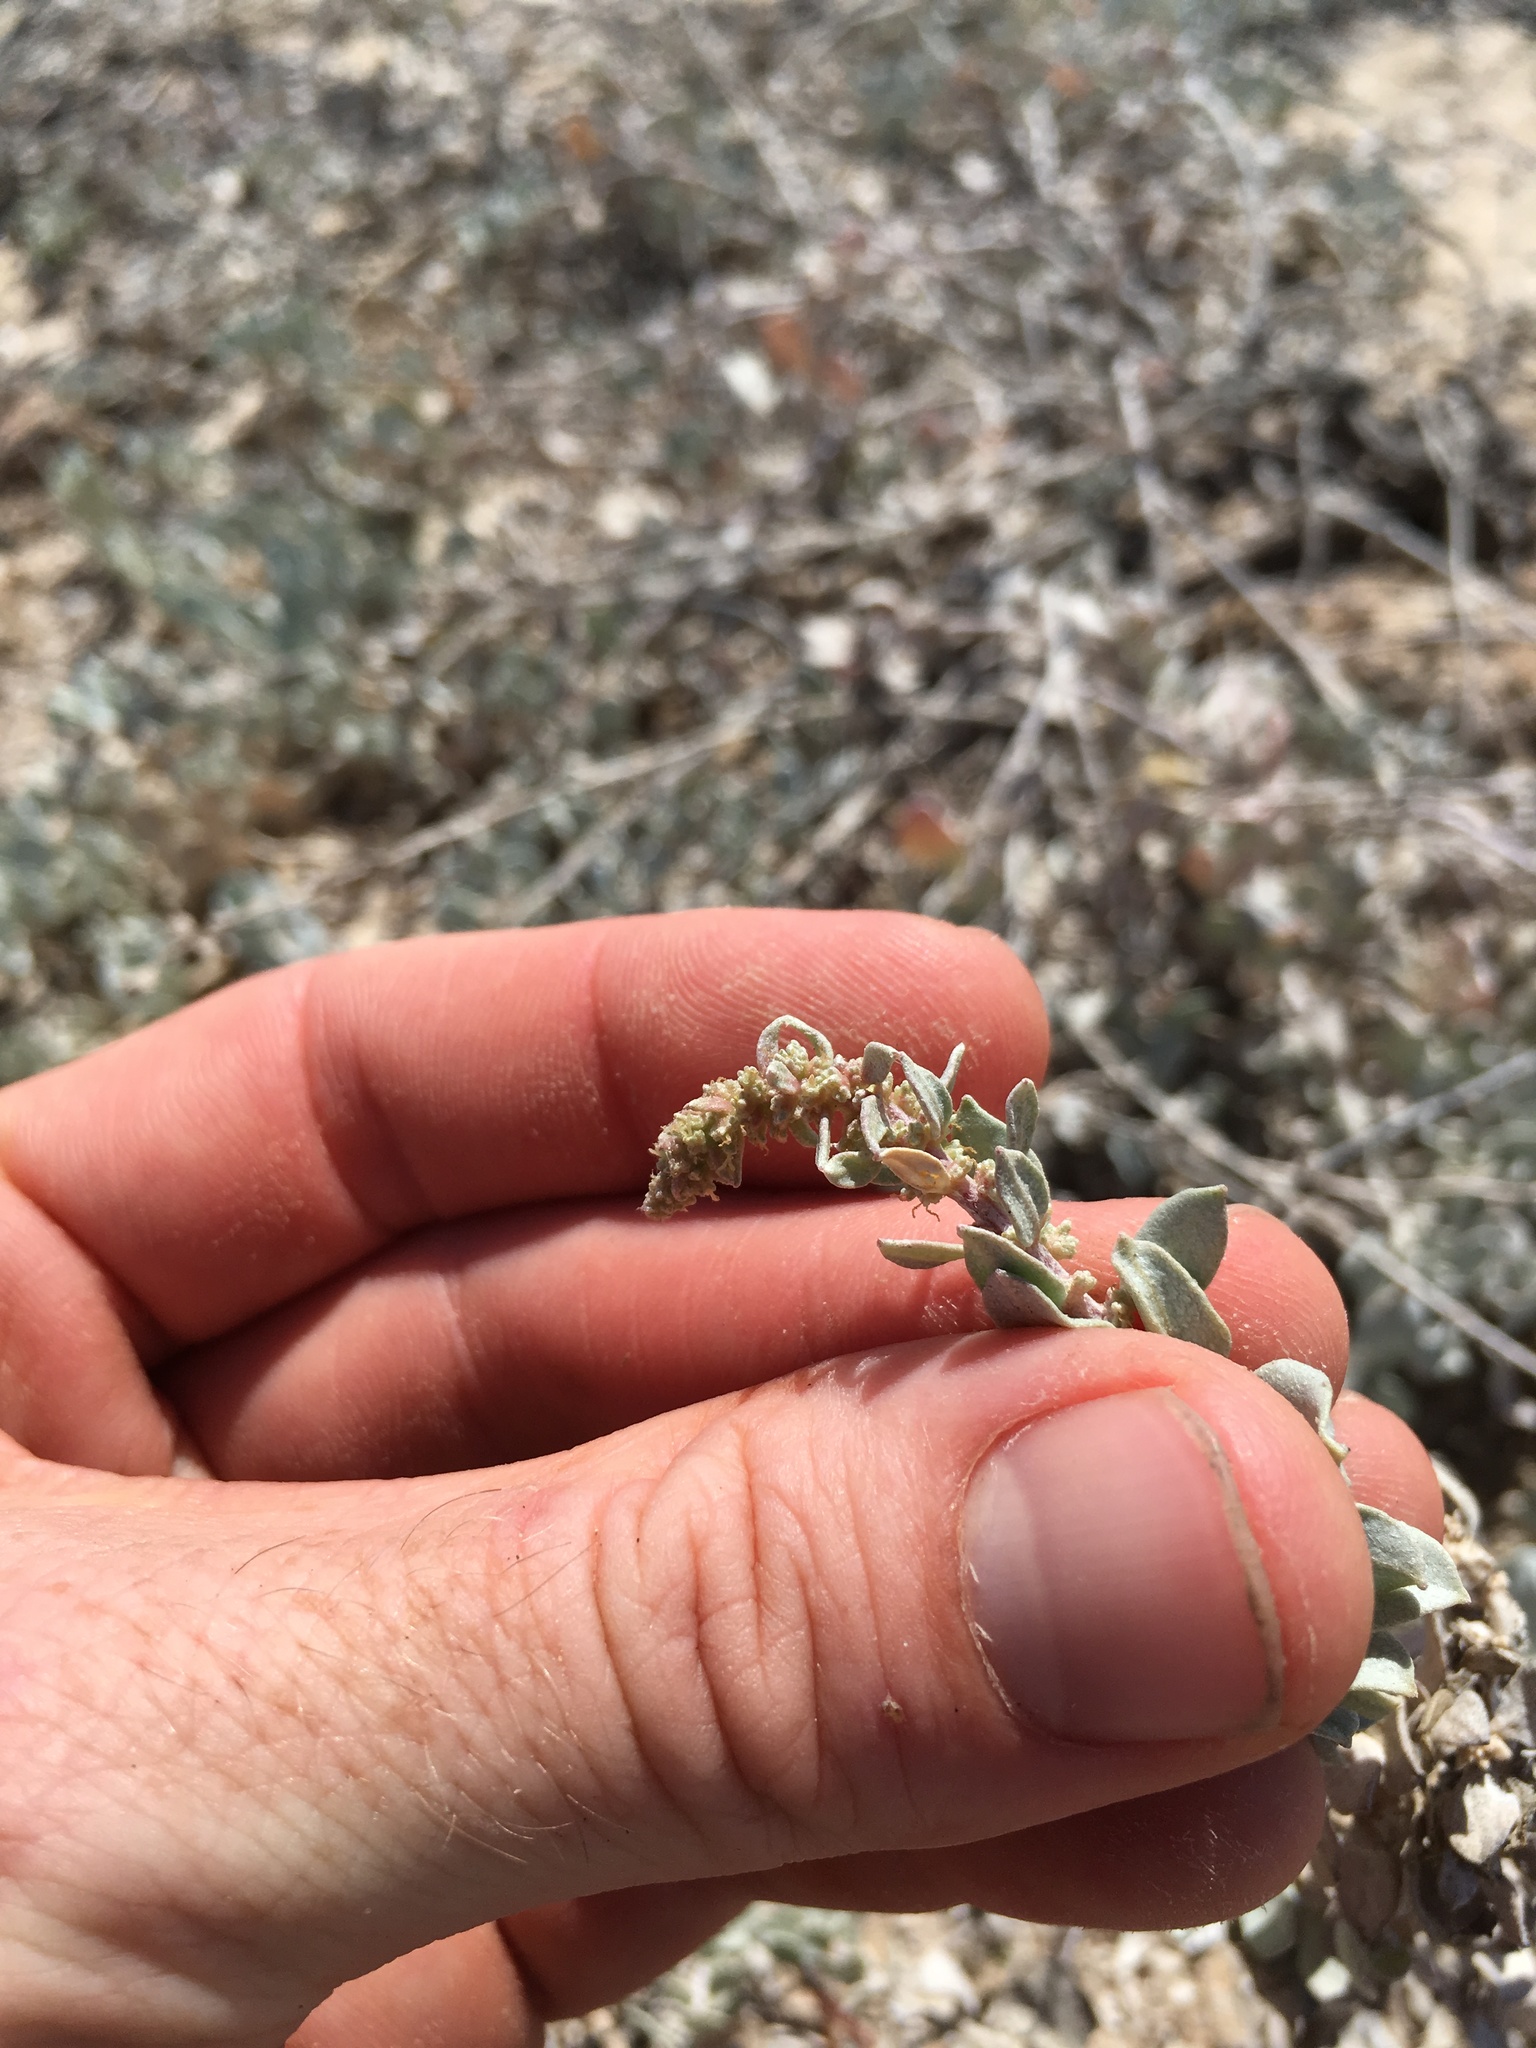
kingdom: Plantae
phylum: Tracheophyta
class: Magnoliopsida
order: Caryophyllales
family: Amaranthaceae
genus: Atriplex
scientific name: Atriplex barclayana
